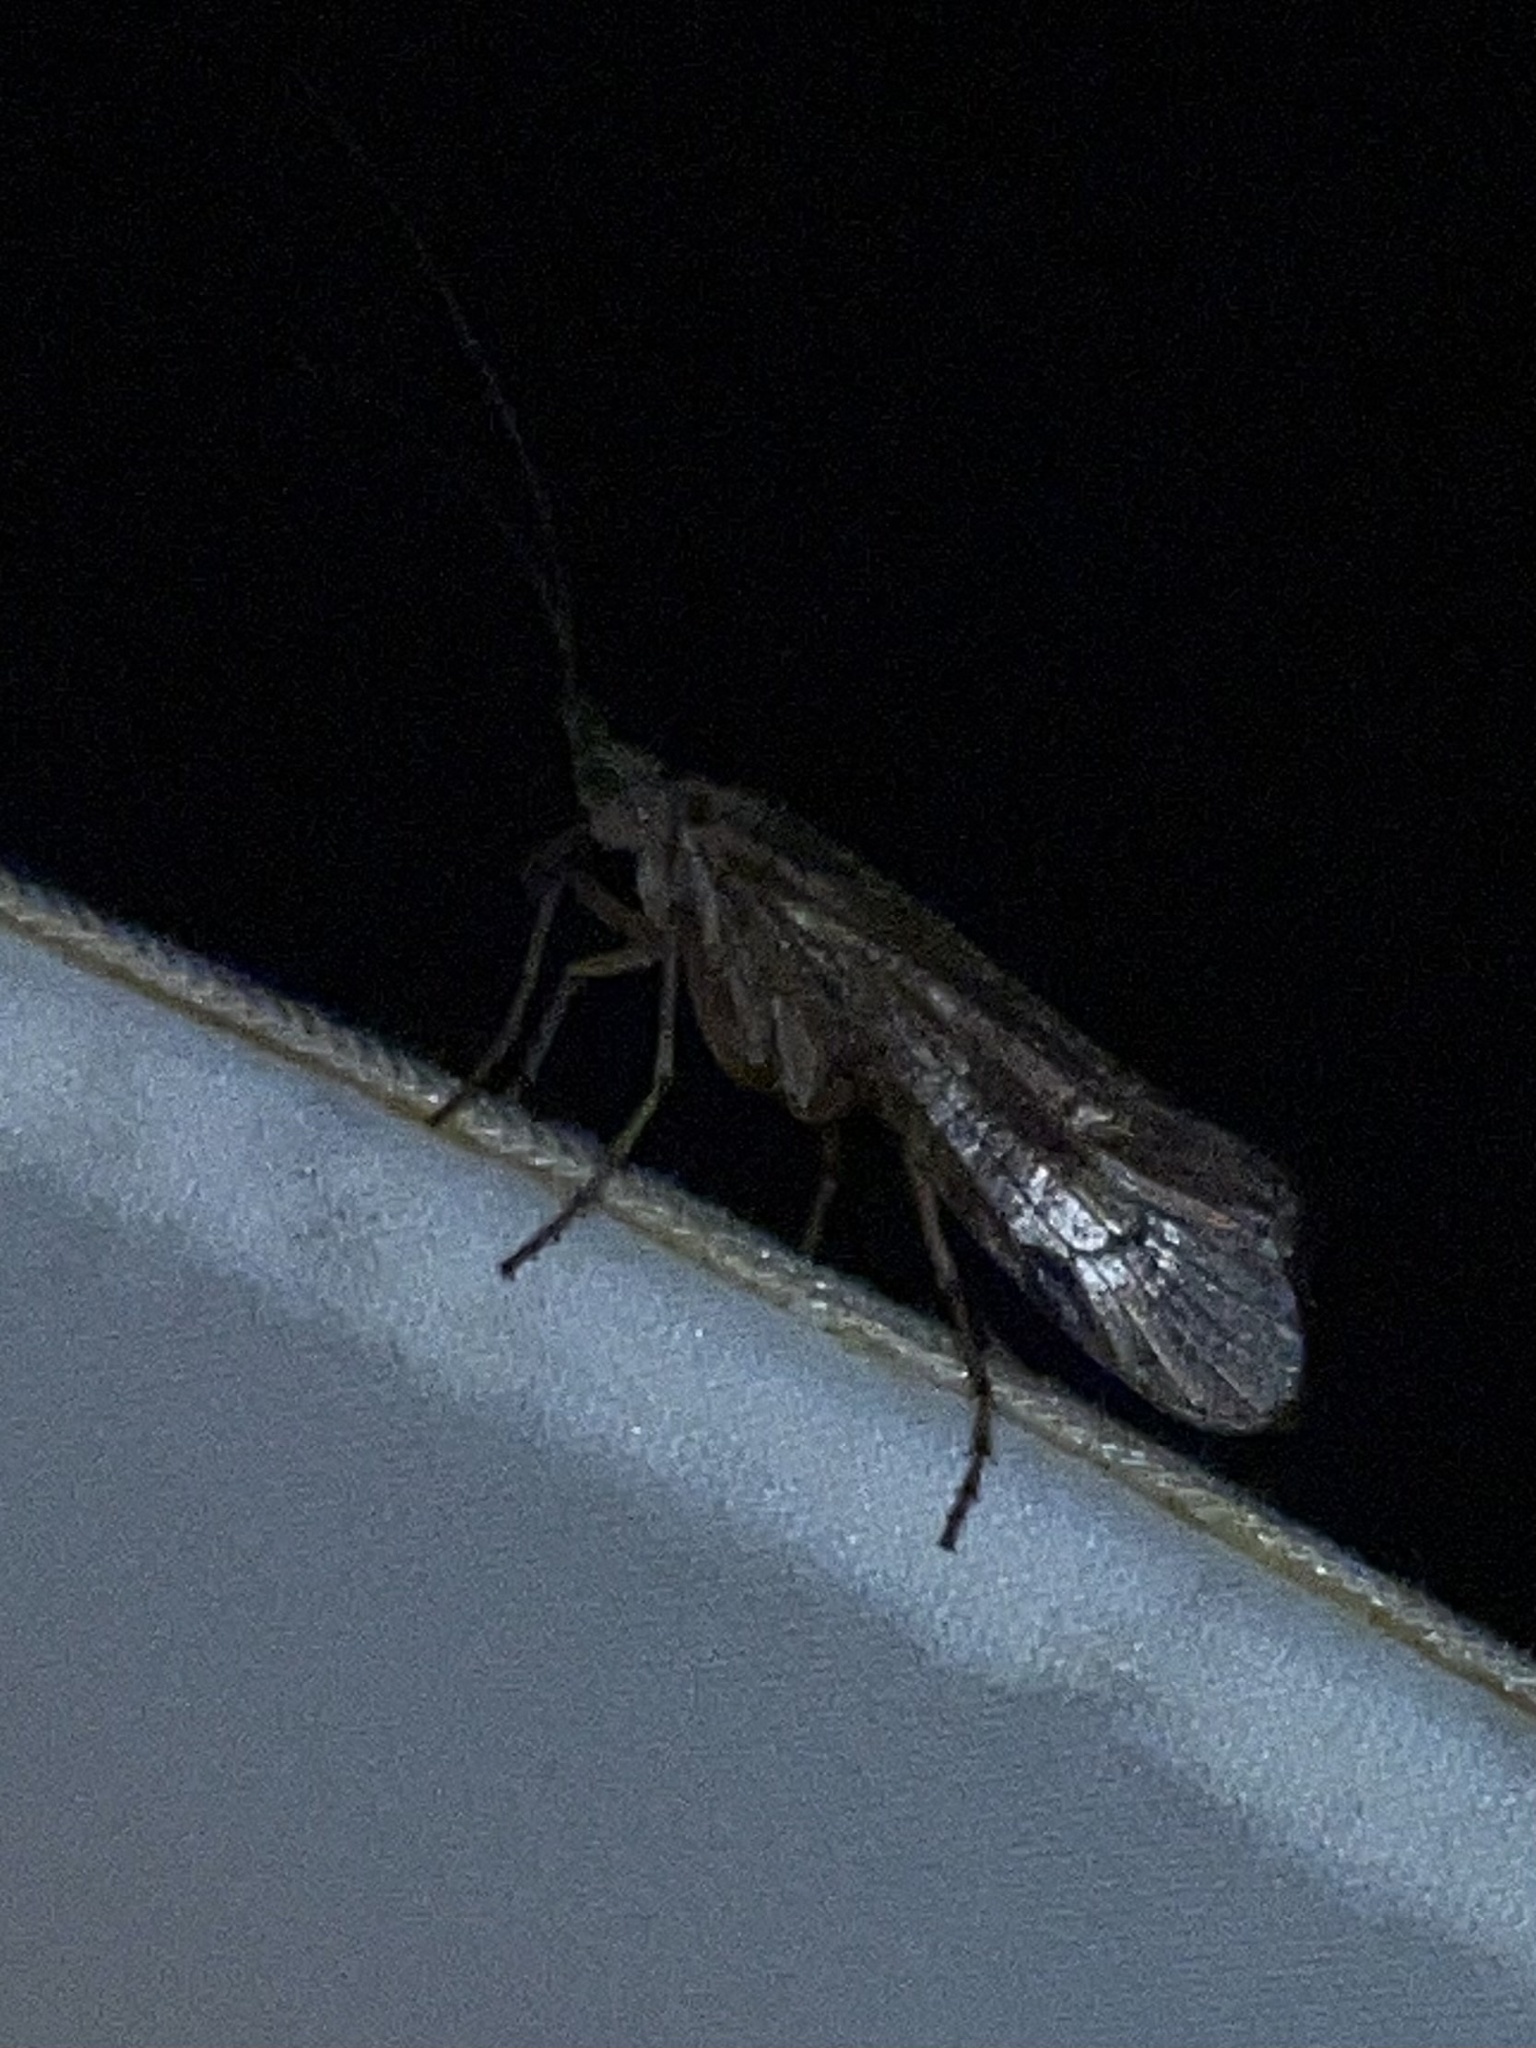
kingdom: Animalia
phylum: Arthropoda
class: Insecta
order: Trichoptera
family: Limnephilidae
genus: Glyphotaelius
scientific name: Glyphotaelius pellucidus
